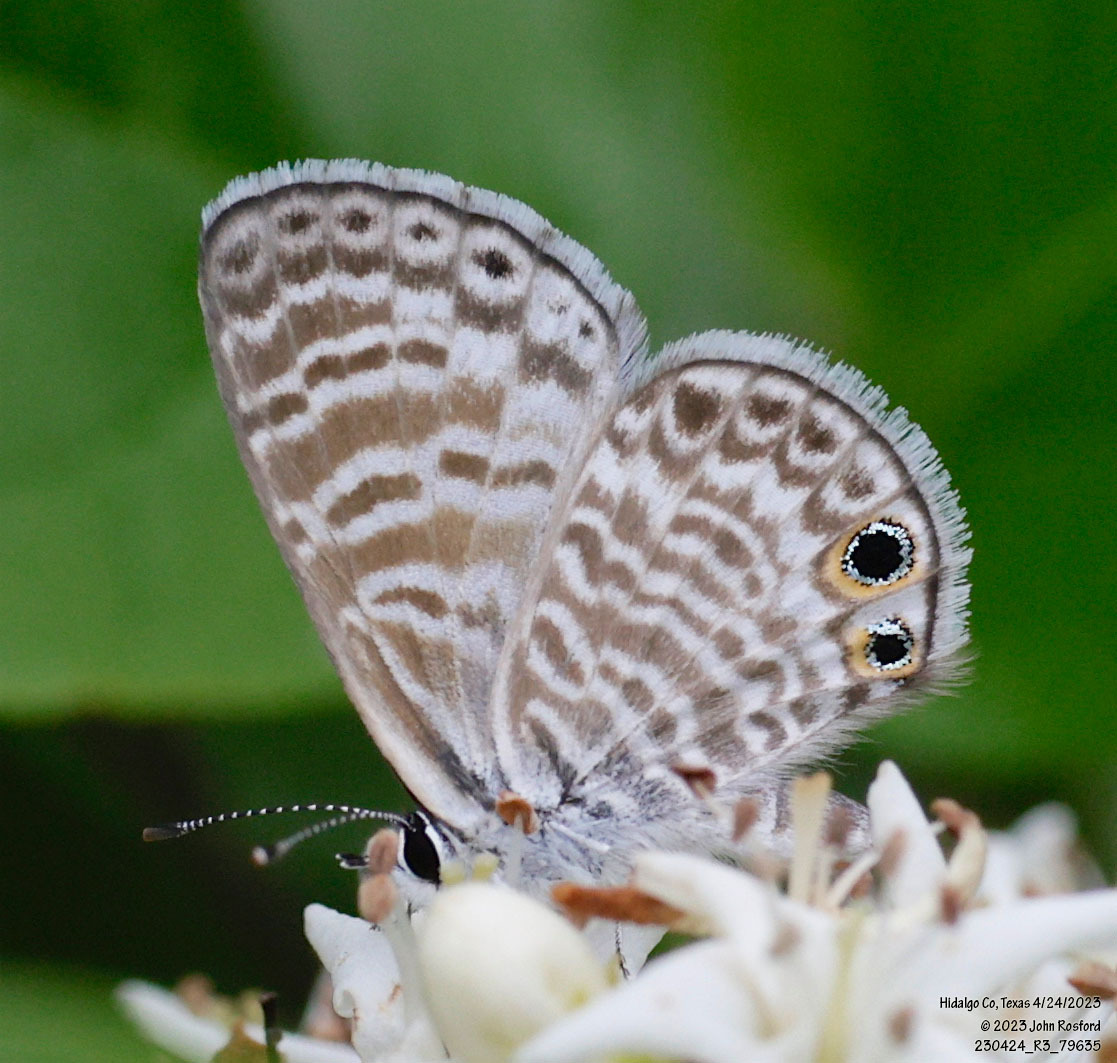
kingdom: Animalia
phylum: Arthropoda
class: Insecta
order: Lepidoptera
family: Lycaenidae
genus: Leptotes
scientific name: Leptotes marina
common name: Marine blue
